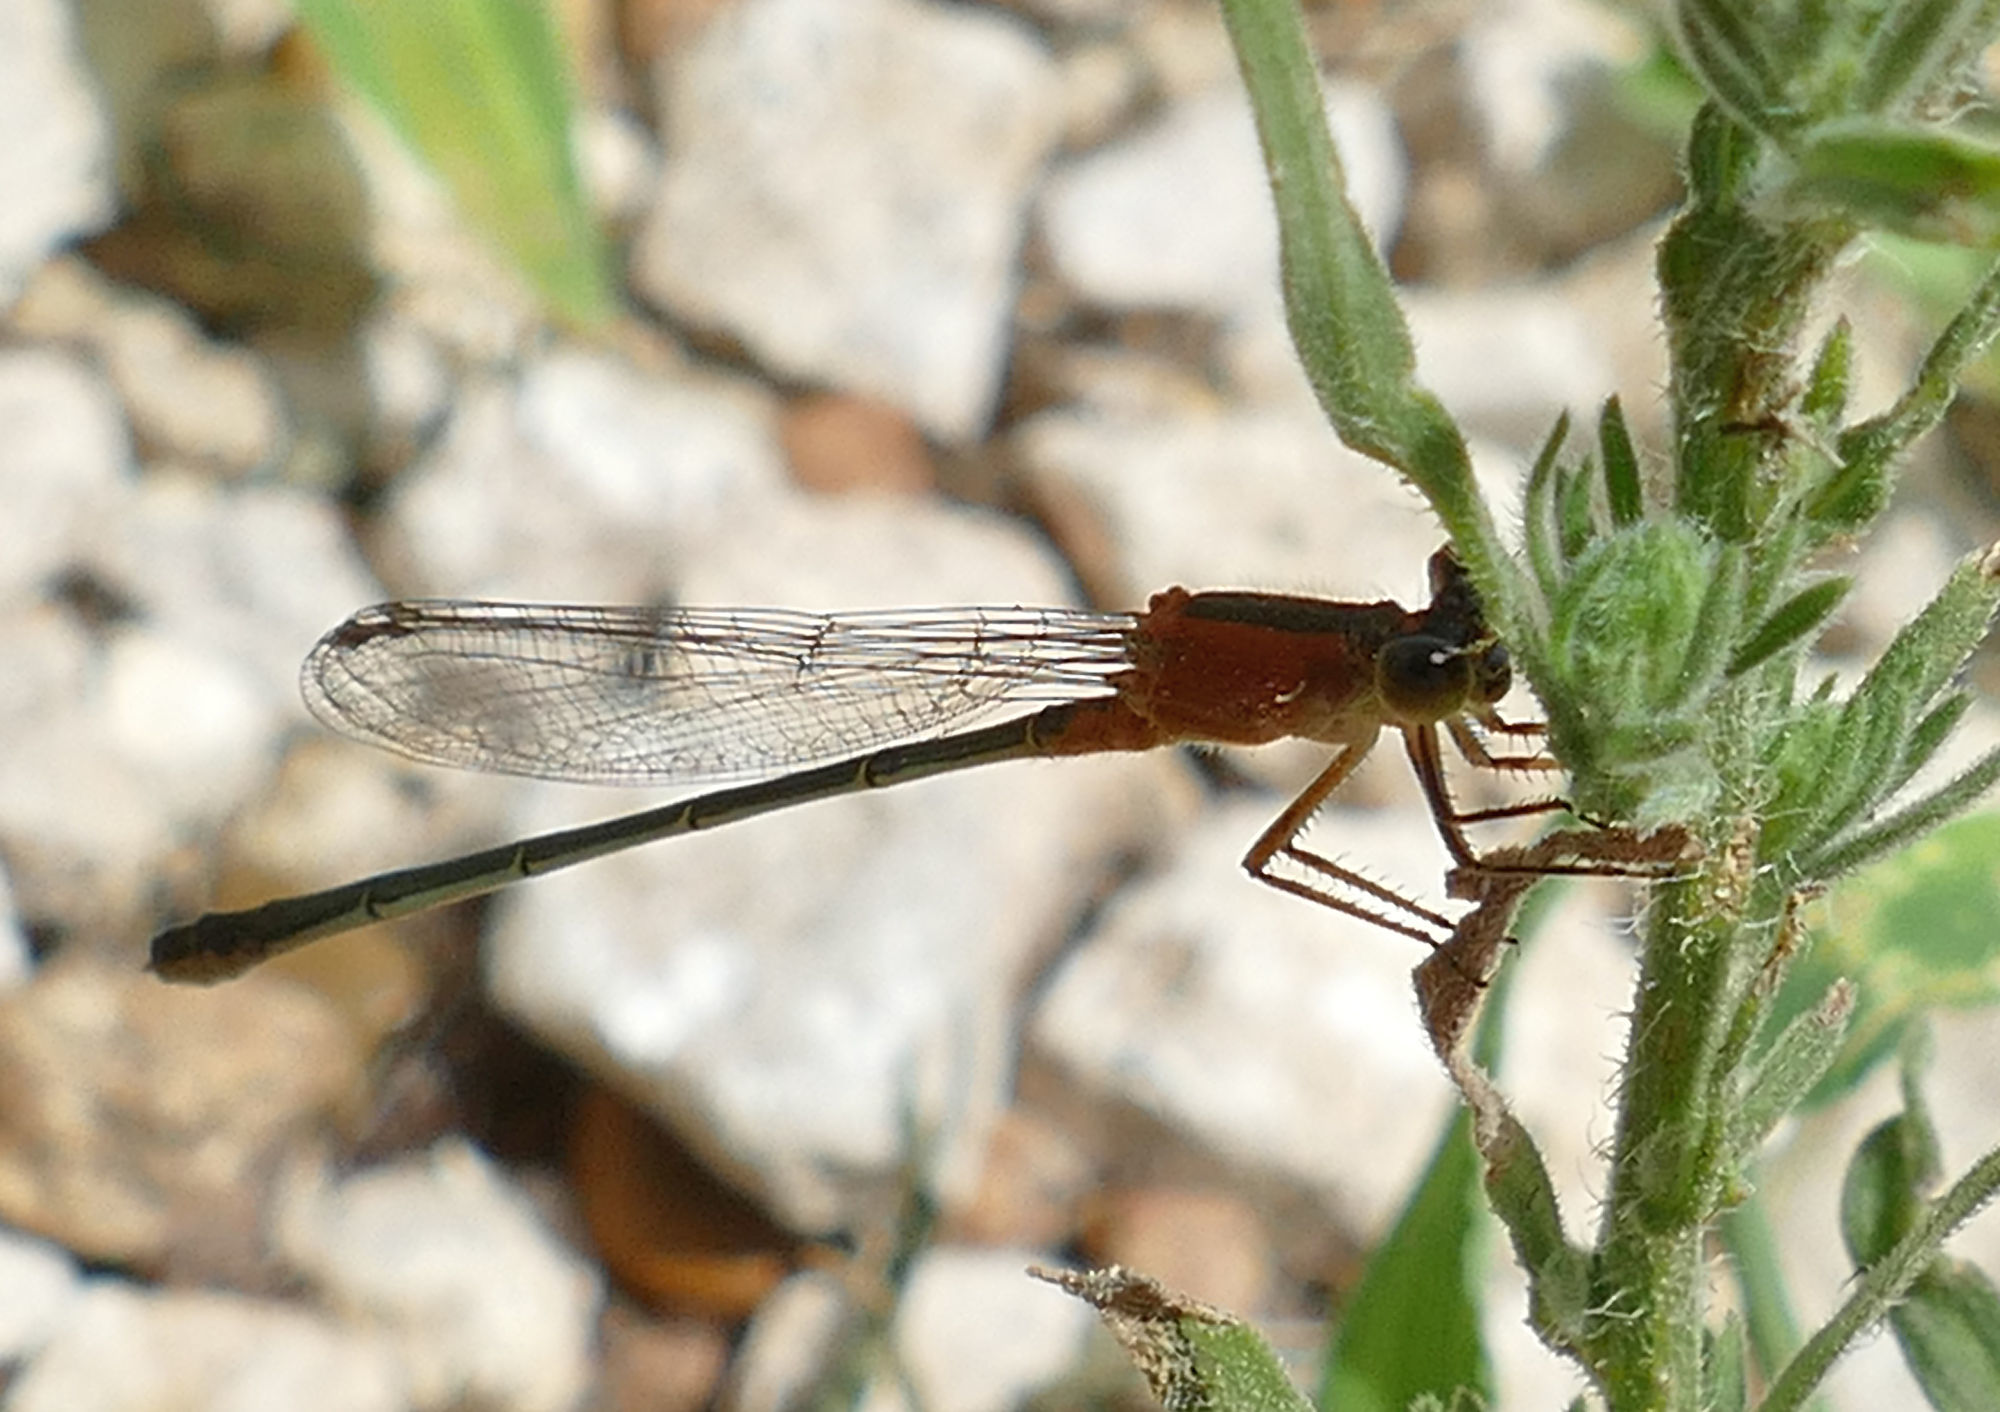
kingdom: Animalia
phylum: Arthropoda
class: Insecta
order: Odonata
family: Coenagrionidae
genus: Ischnura
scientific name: Ischnura ramburii
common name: Rambur's forktail
